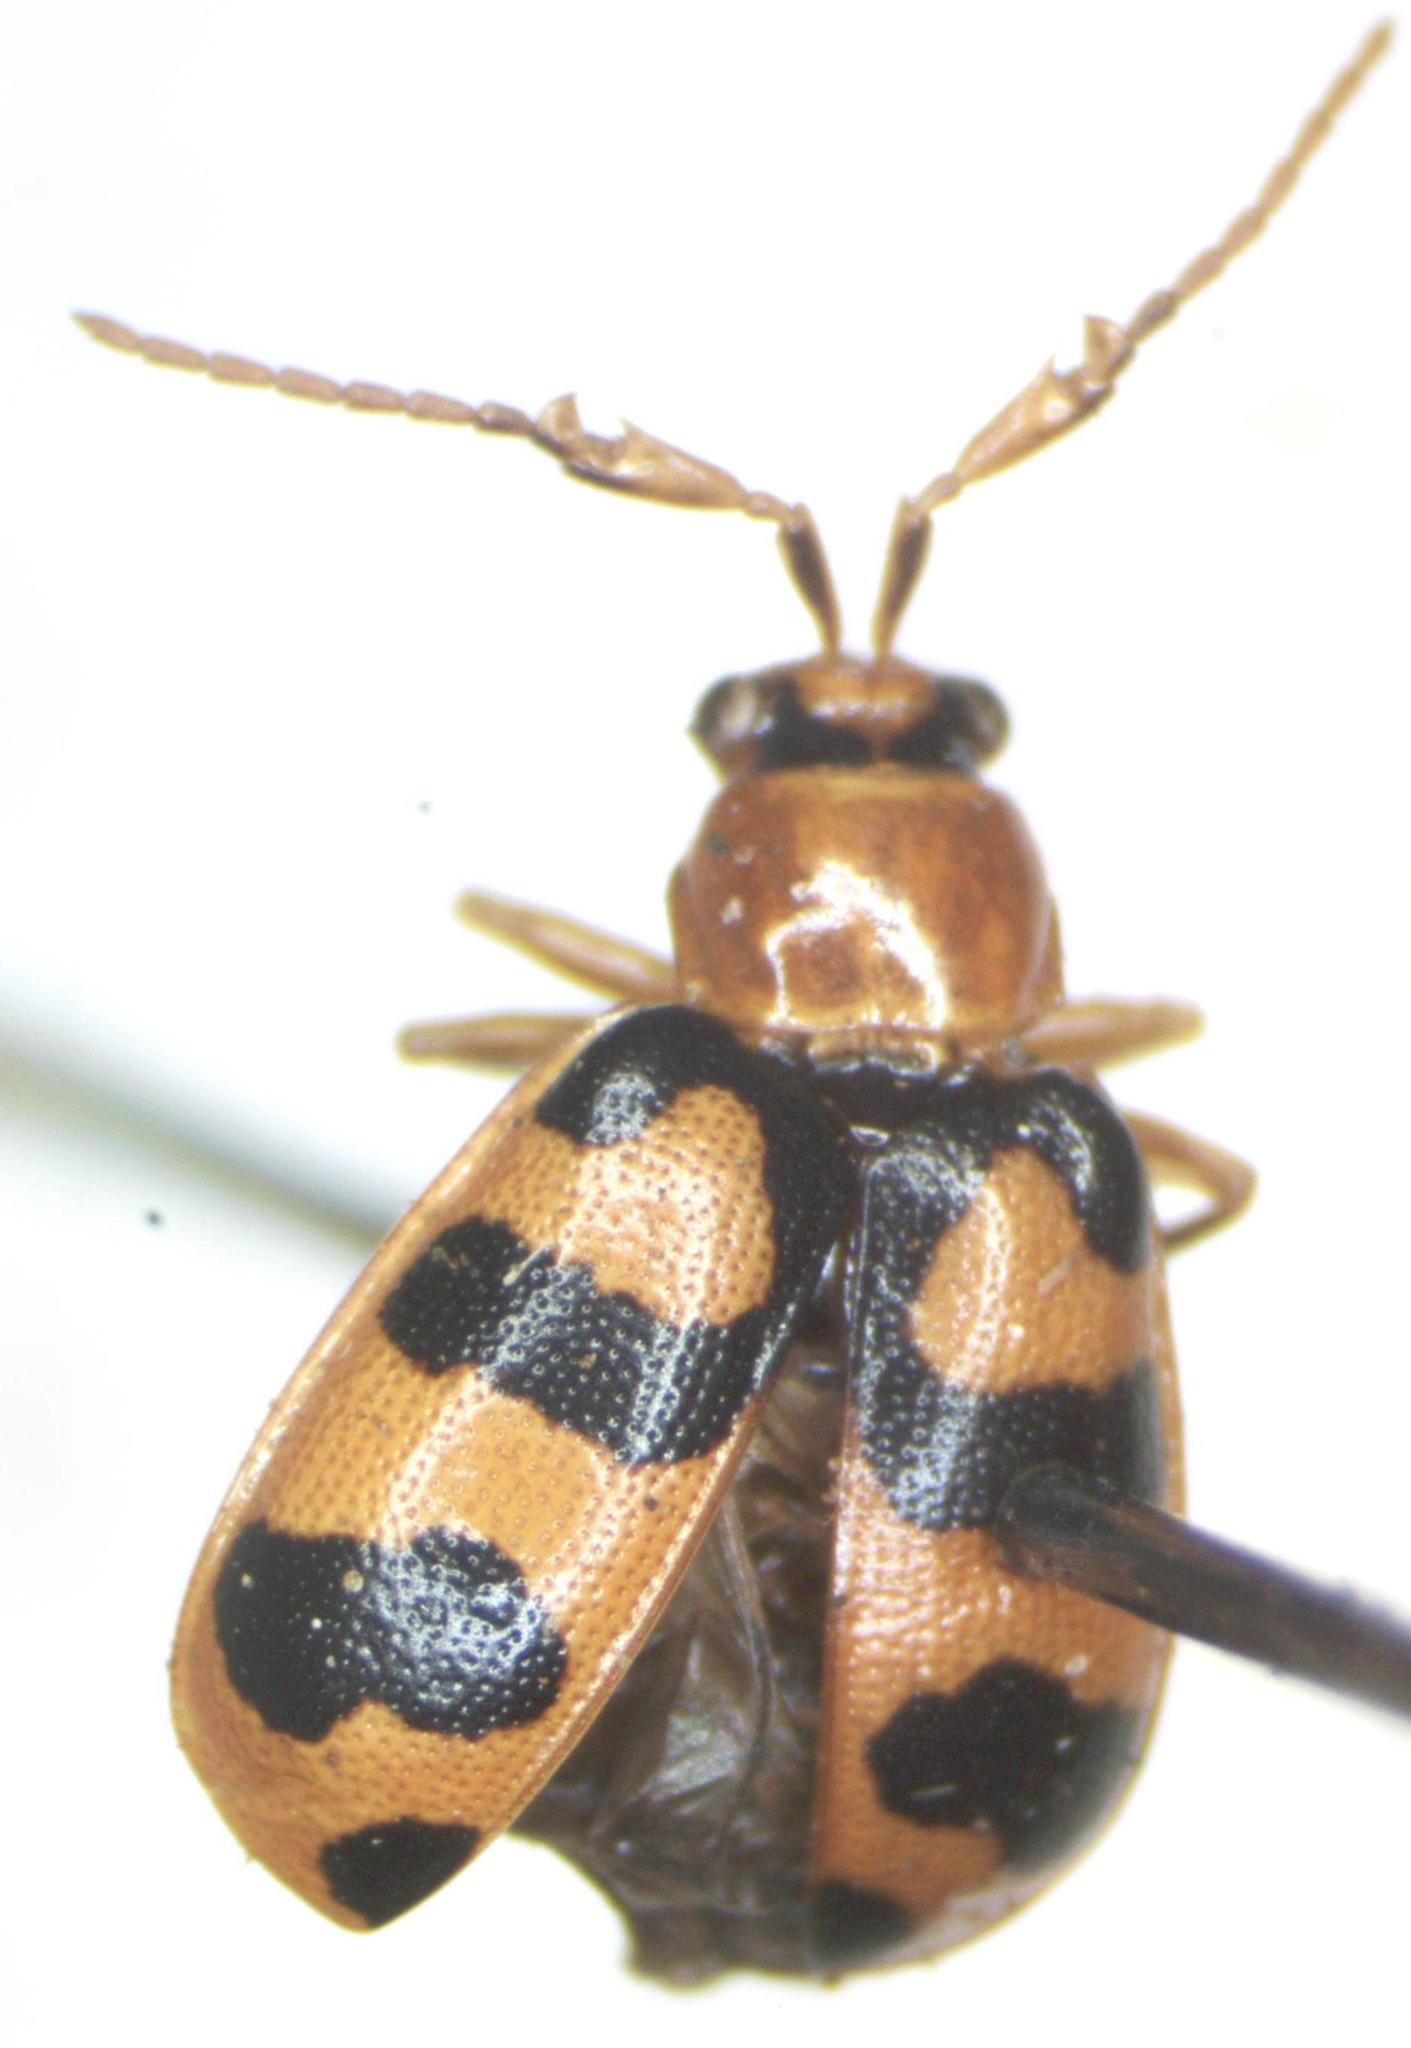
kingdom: Animalia
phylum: Arthropoda
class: Insecta
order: Coleoptera
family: Chrysomelidae
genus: Cerotoma
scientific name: Cerotoma atrofasciata
